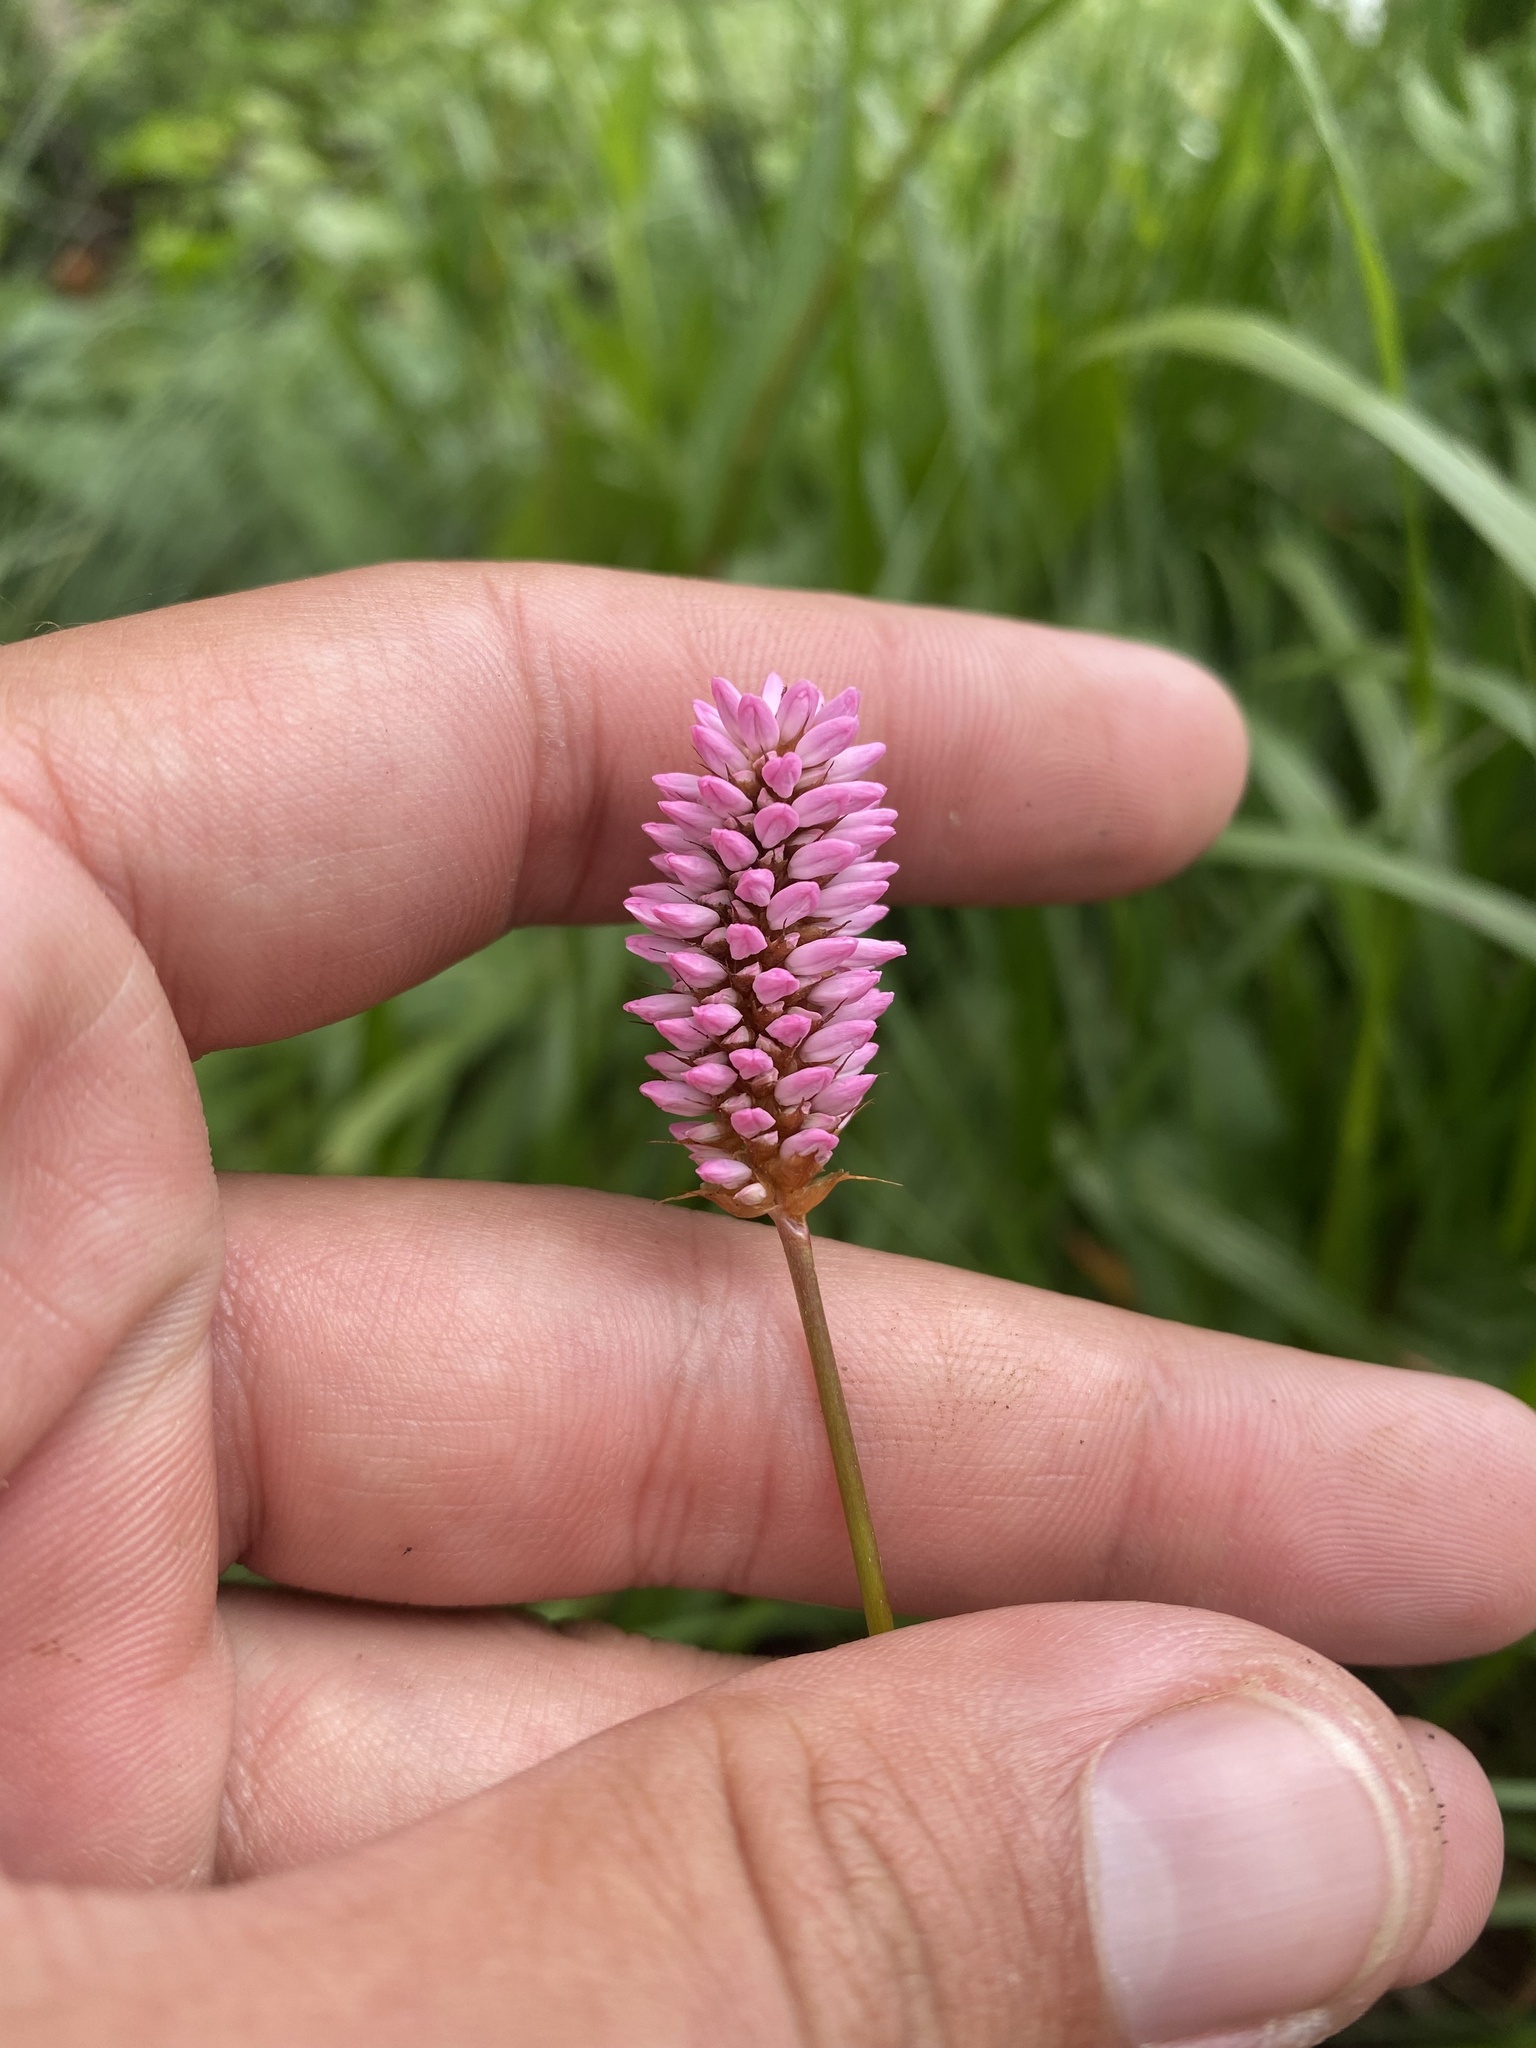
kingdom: Plantae
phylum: Tracheophyta
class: Magnoliopsida
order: Caryophyllales
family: Polygonaceae
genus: Bistorta
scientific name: Bistorta carnea
